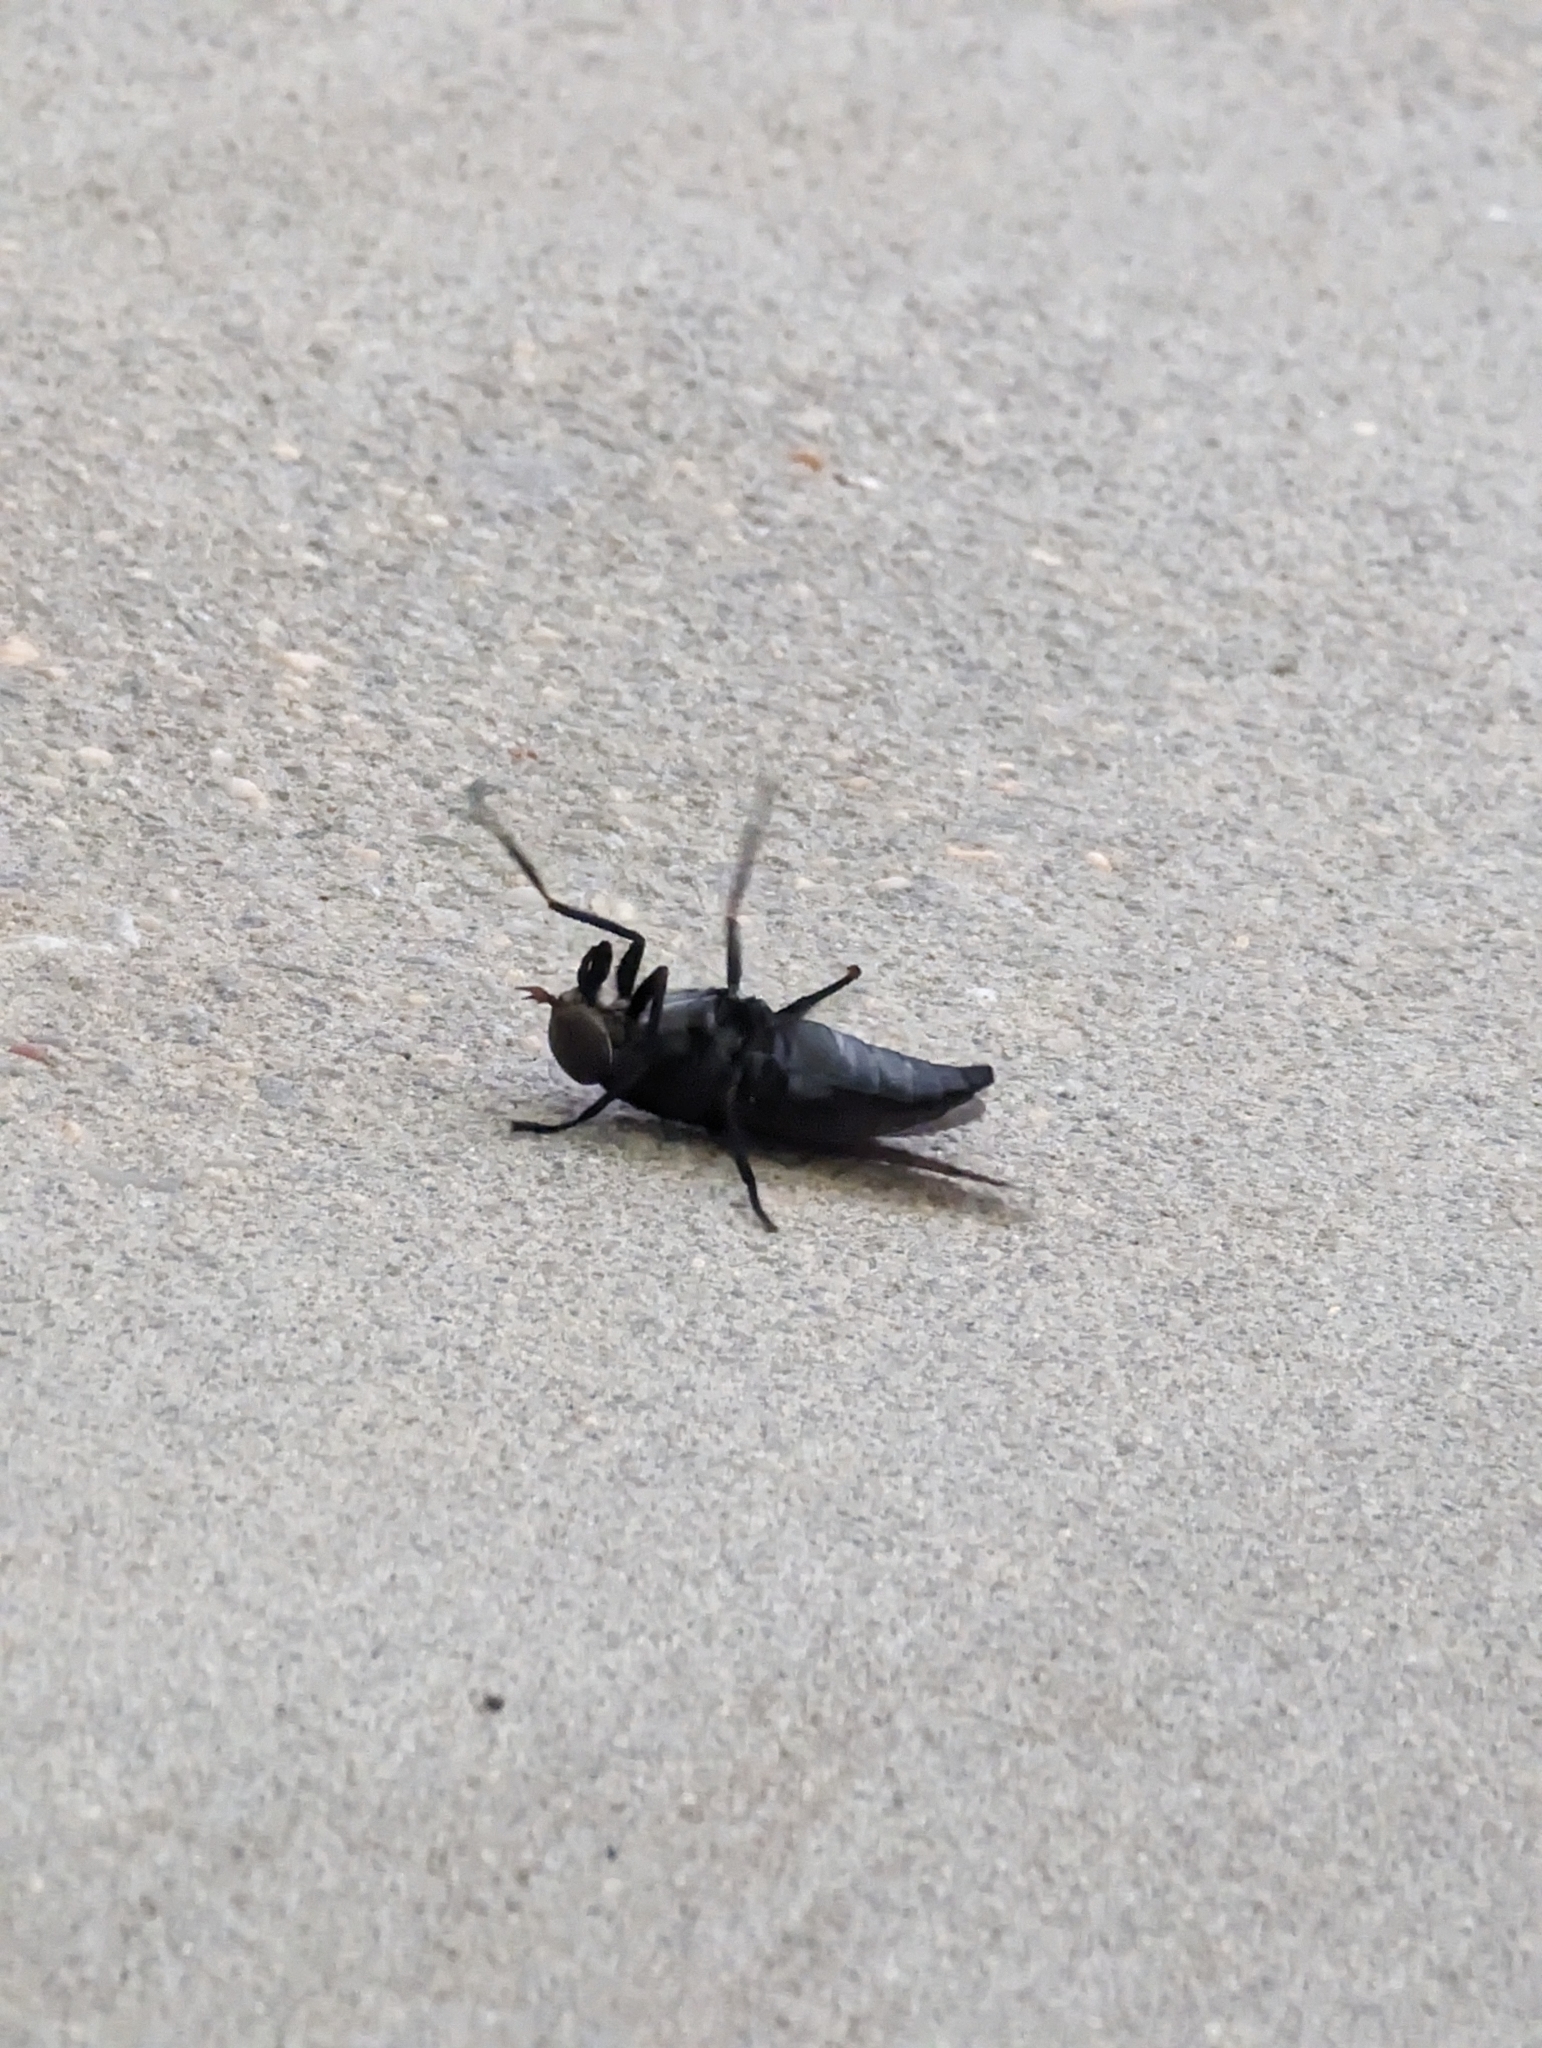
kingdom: Animalia
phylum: Arthropoda
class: Insecta
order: Diptera
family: Tabanidae
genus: Tabanus
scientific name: Tabanus atratus
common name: Black horse fly
